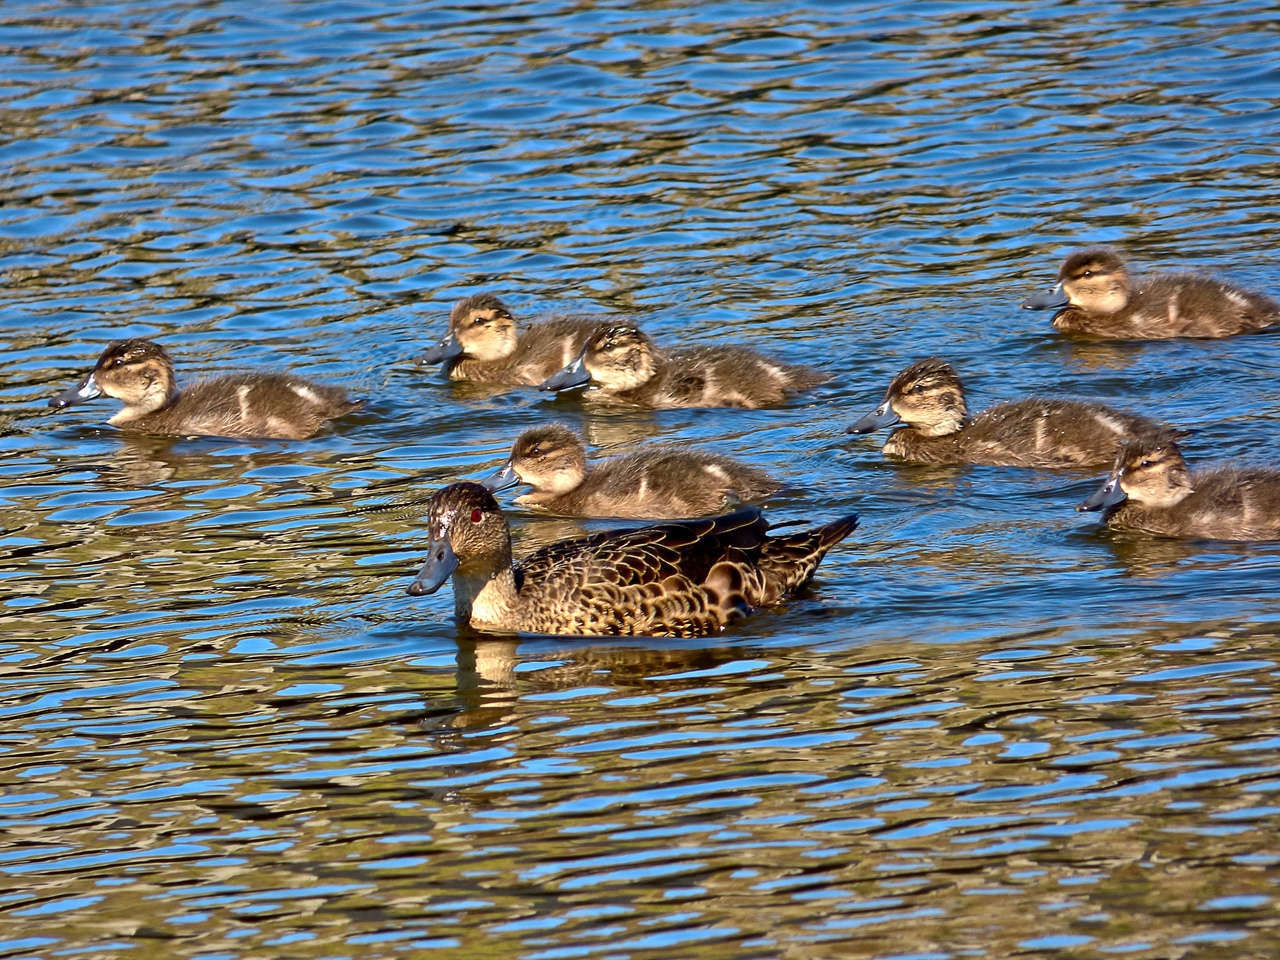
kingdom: Animalia
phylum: Chordata
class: Aves
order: Anseriformes
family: Anatidae
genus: Anas
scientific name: Anas castanea
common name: Chestnut teal
